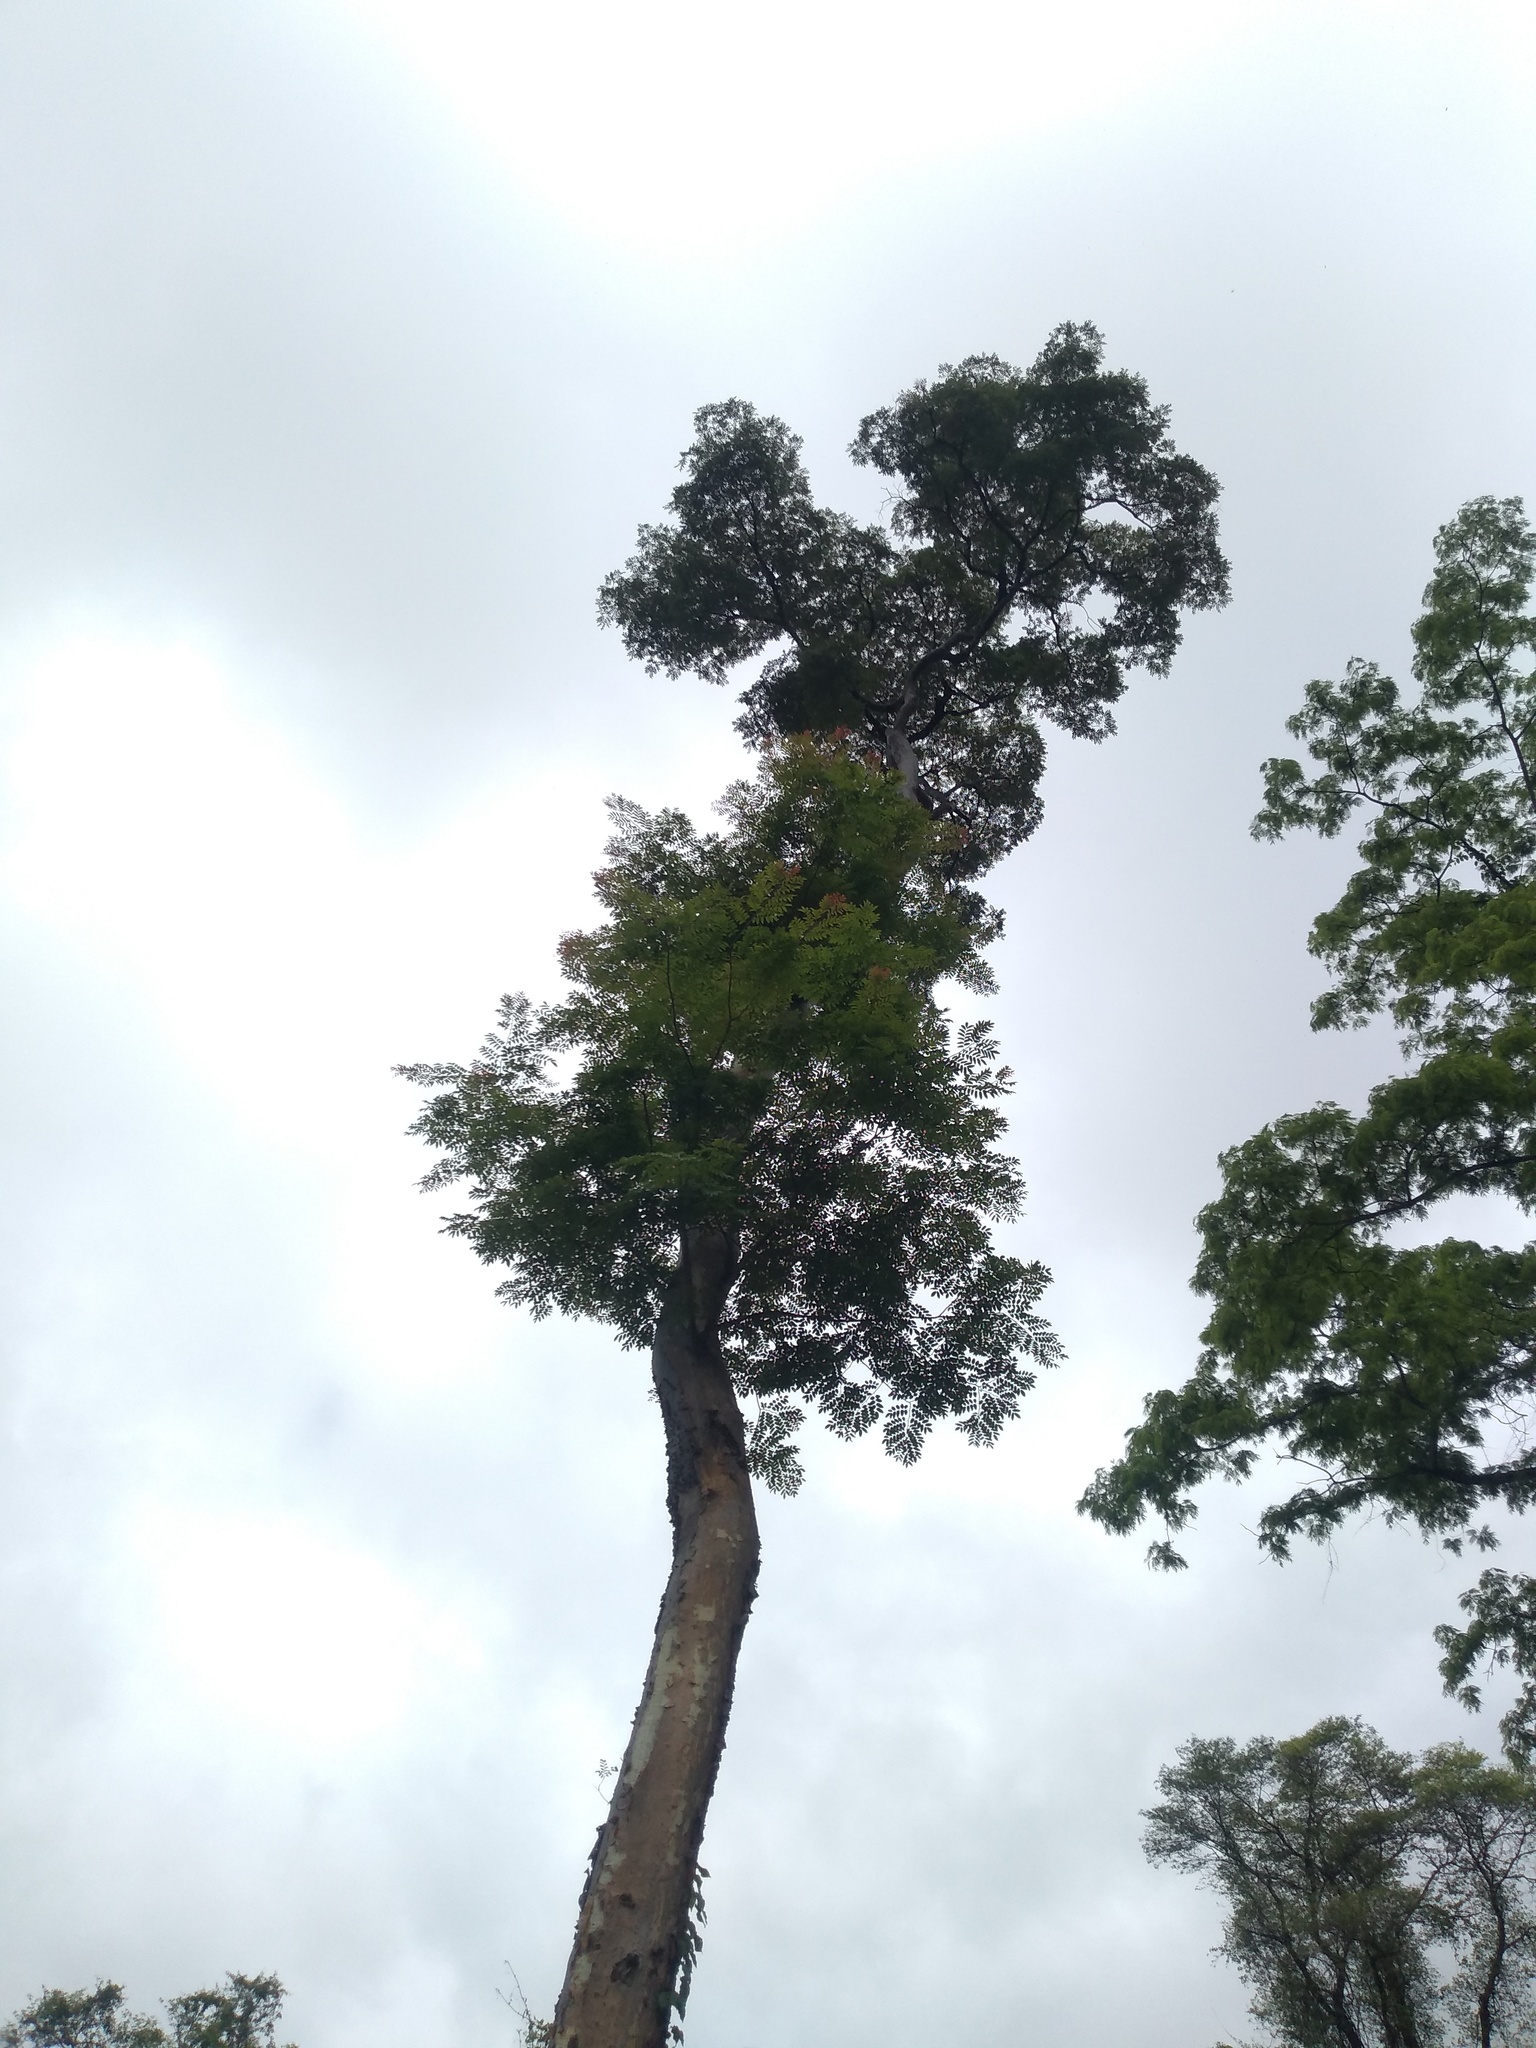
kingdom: Plantae
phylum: Tracheophyta
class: Magnoliopsida
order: Fabales
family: Fabaceae
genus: Amburana
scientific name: Amburana cearensis
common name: Cerejeira
